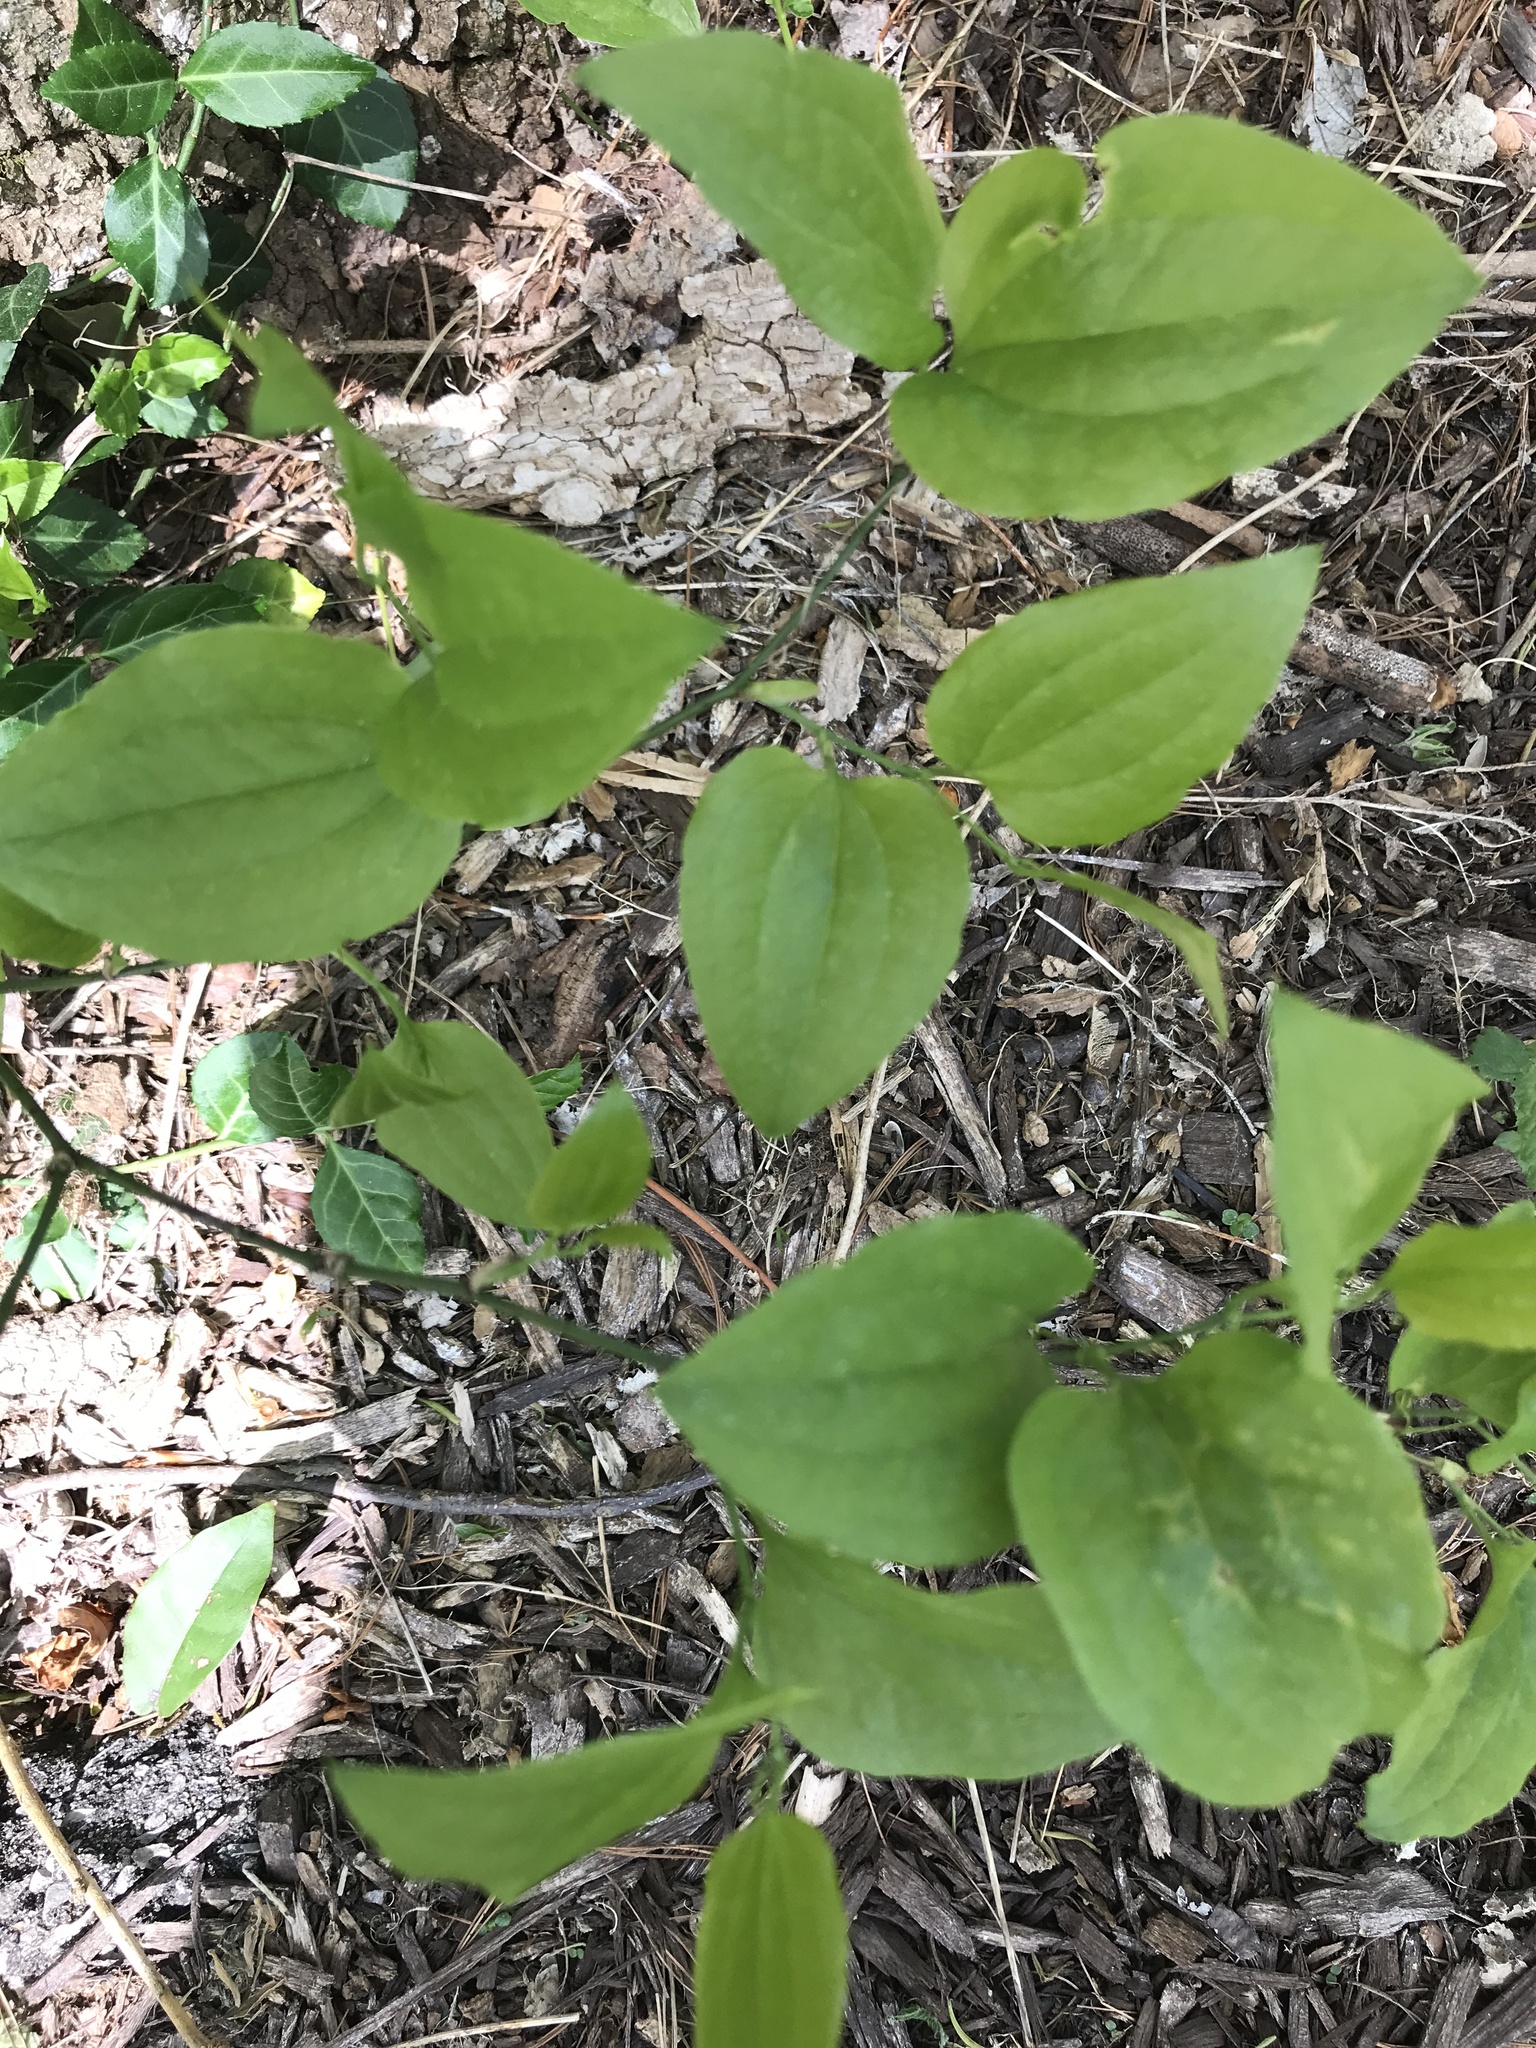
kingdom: Plantae
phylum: Tracheophyta
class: Liliopsida
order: Liliales
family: Smilacaceae
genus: Smilax
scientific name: Smilax tamnoides
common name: Hellfetter
